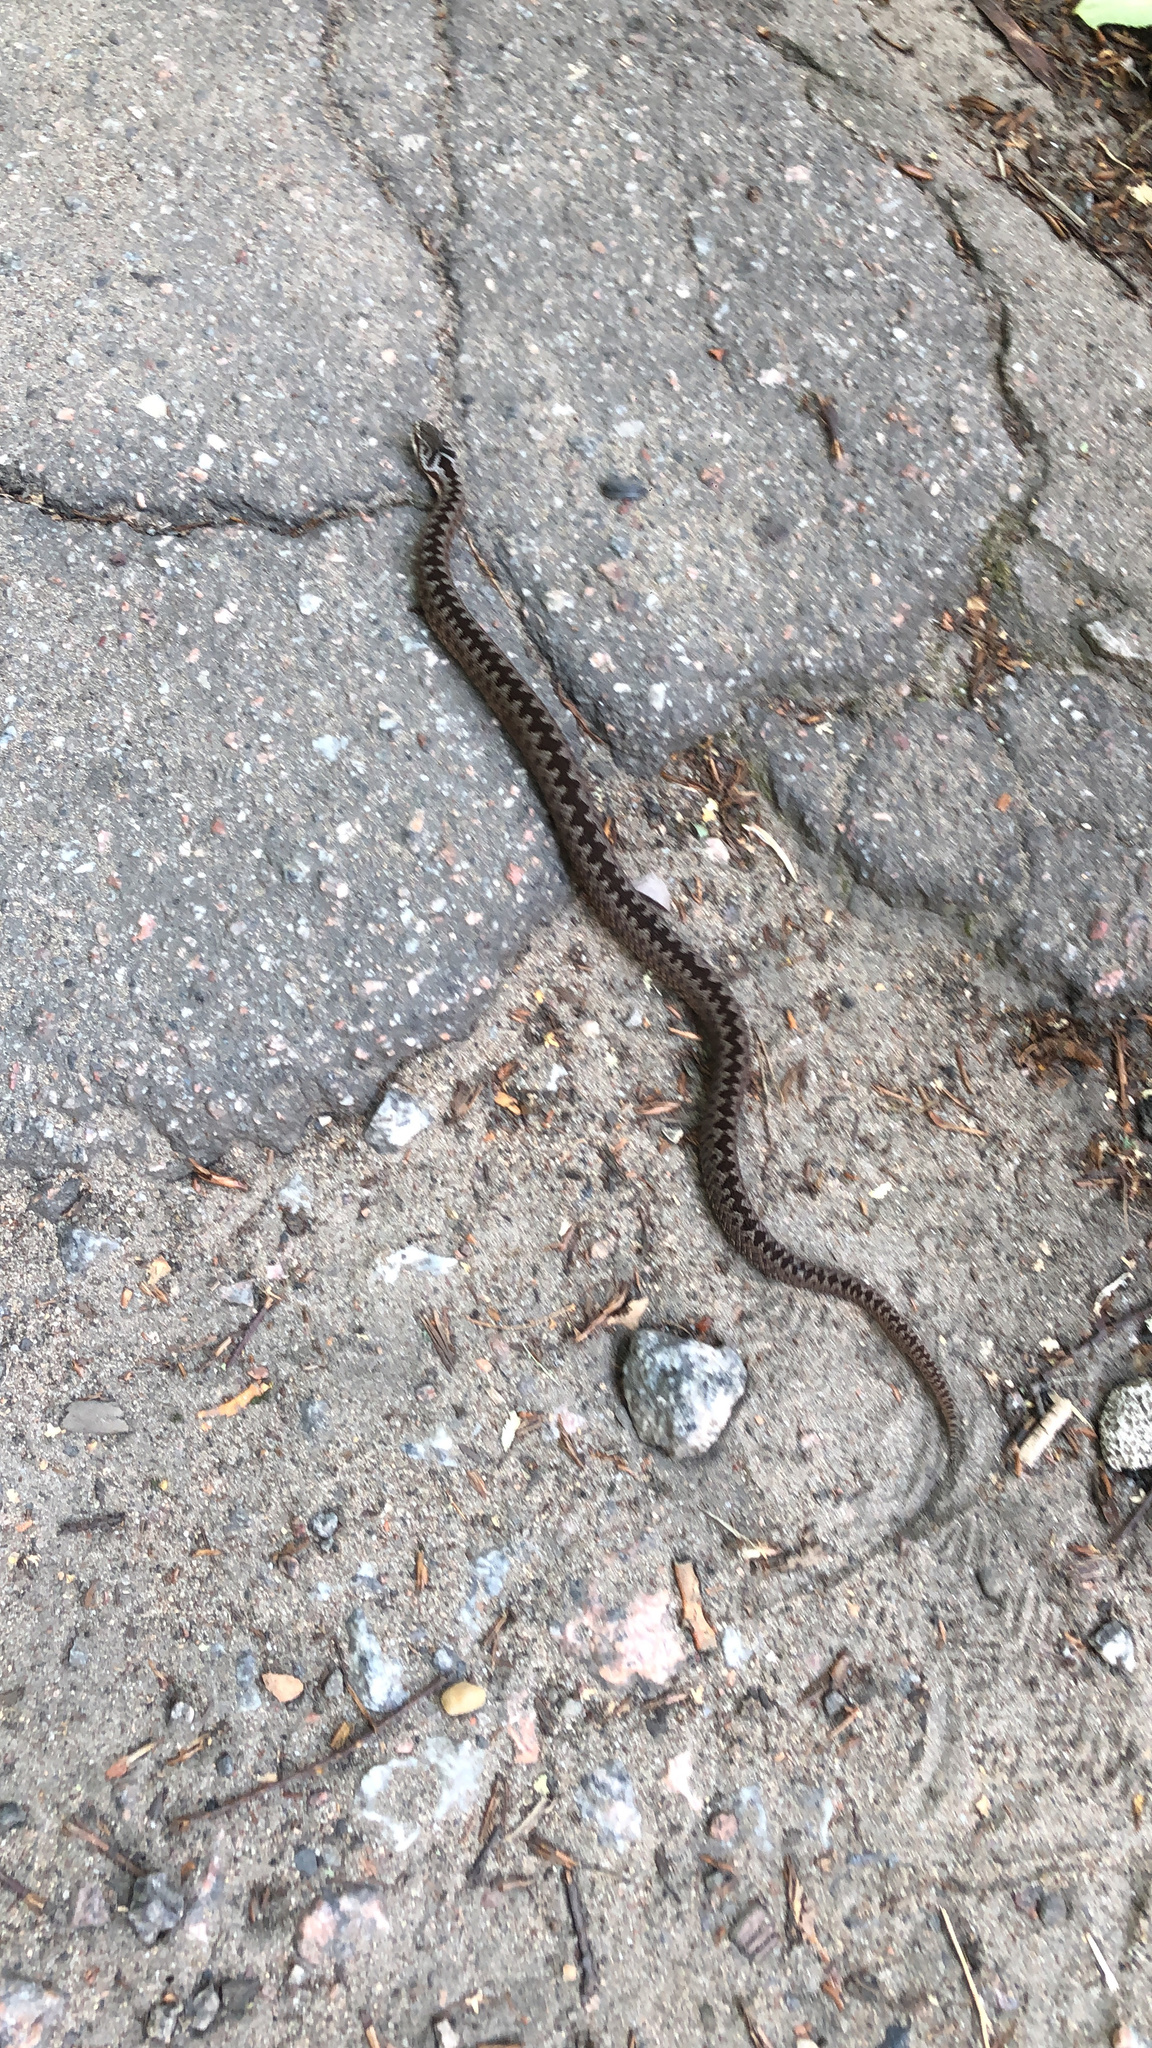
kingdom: Animalia
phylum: Chordata
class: Squamata
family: Viperidae
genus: Vipera
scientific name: Vipera berus
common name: Adder
